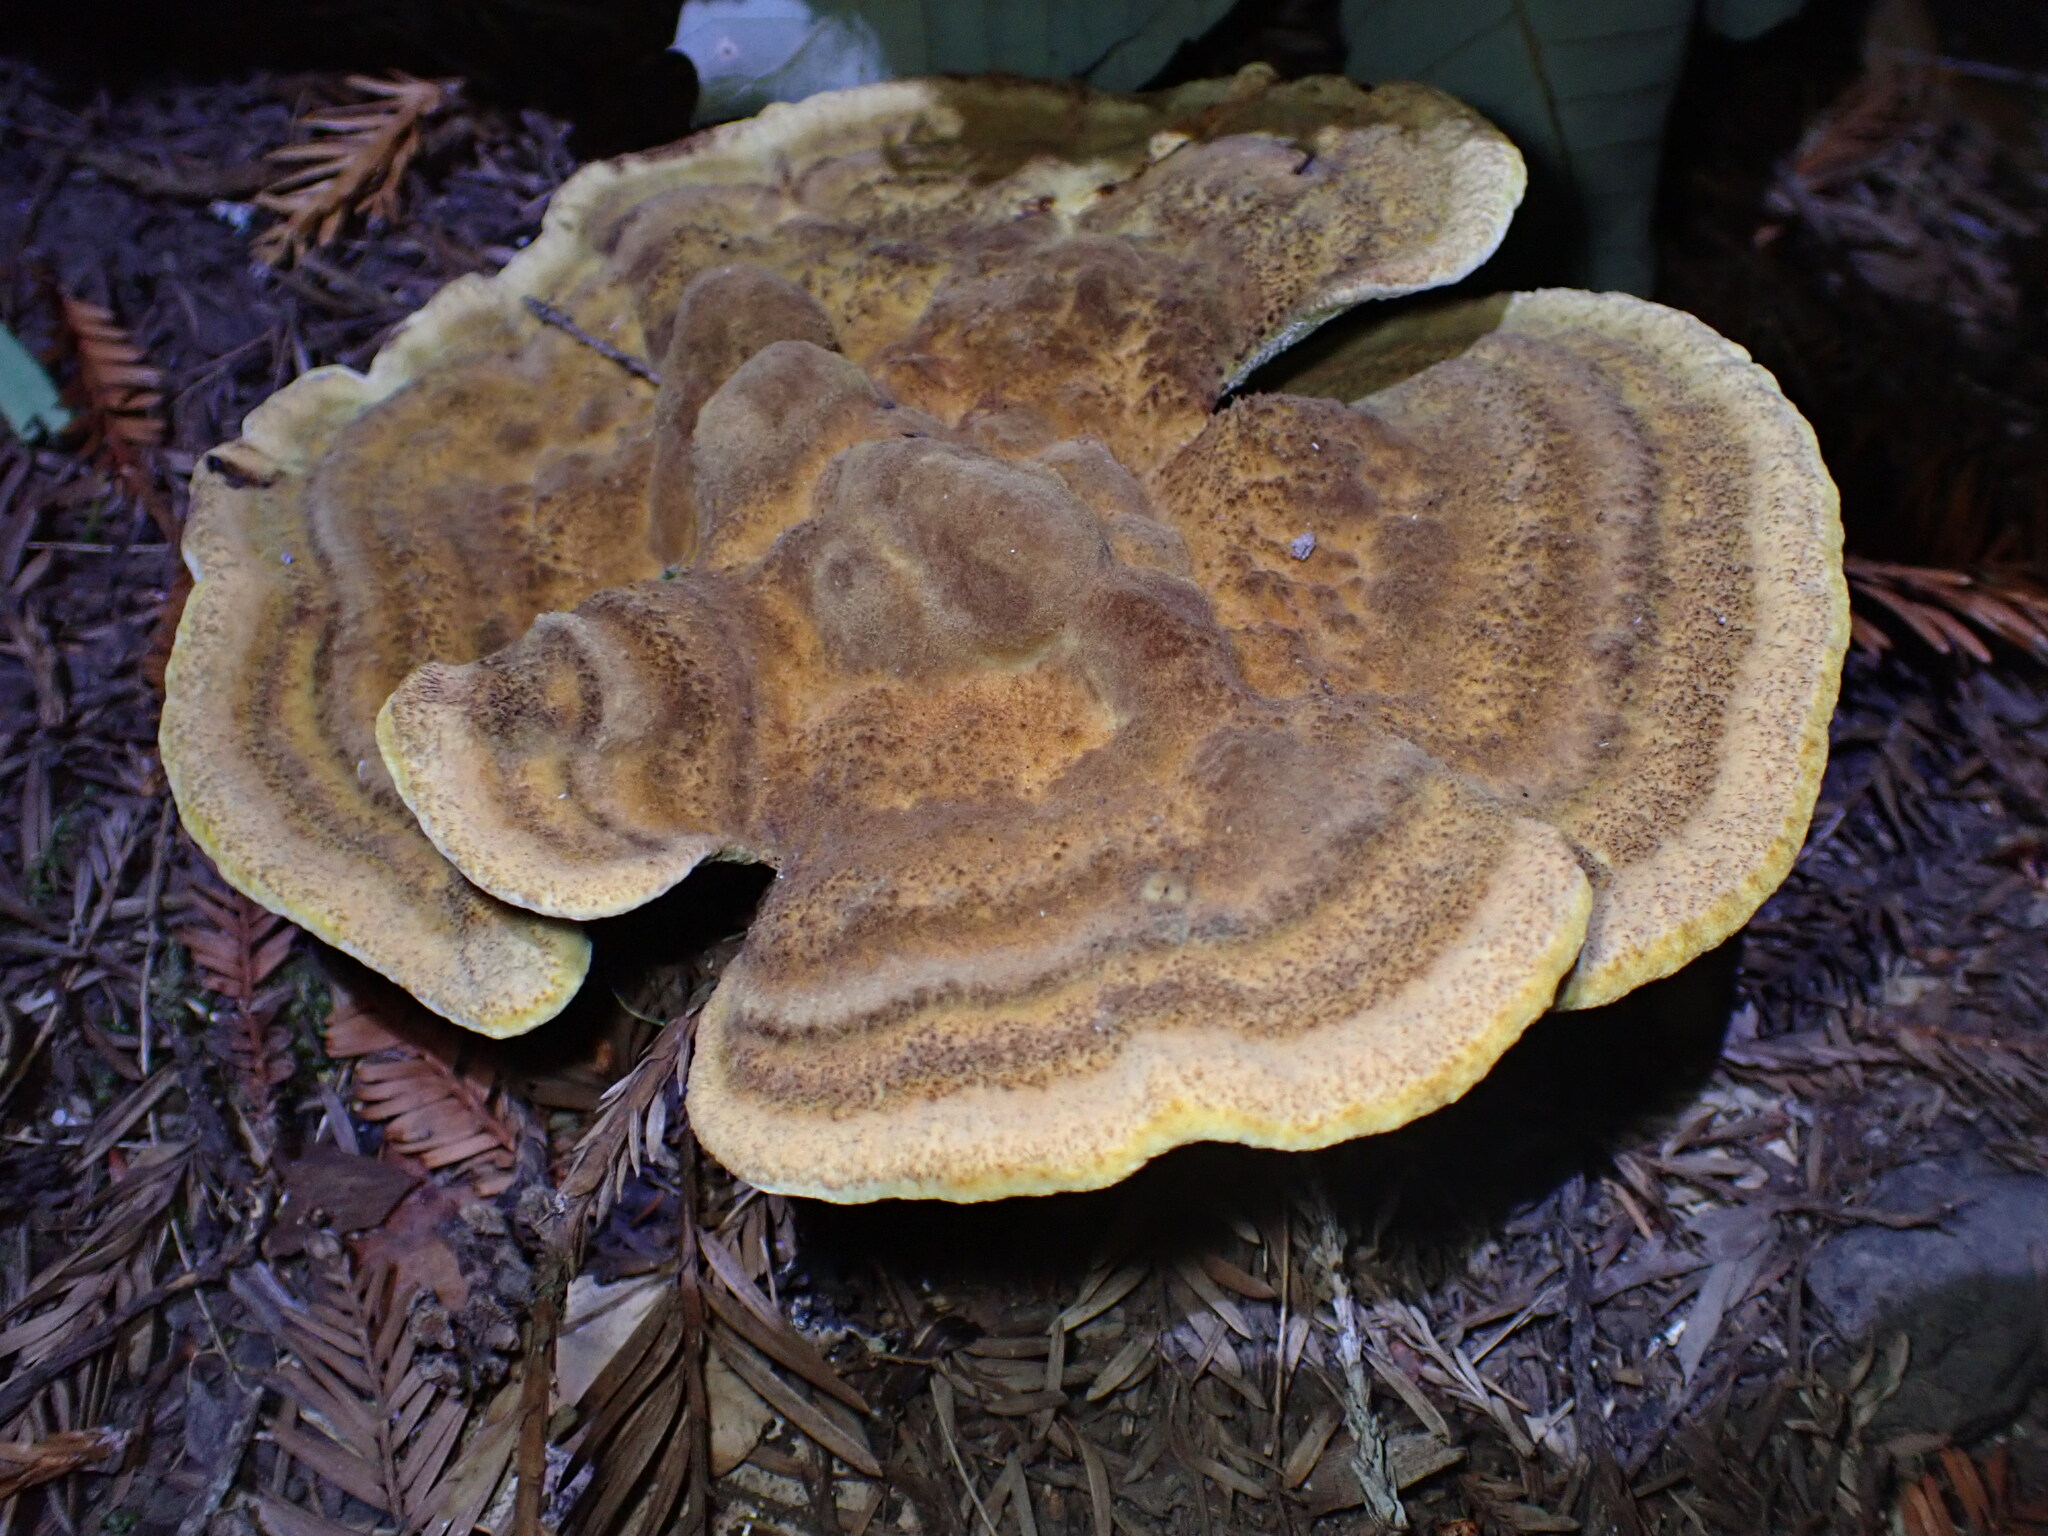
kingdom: Fungi
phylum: Basidiomycota
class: Agaricomycetes
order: Polyporales
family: Laetiporaceae
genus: Phaeolus
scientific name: Phaeolus schweinitzii
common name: Dyer's mazegill
